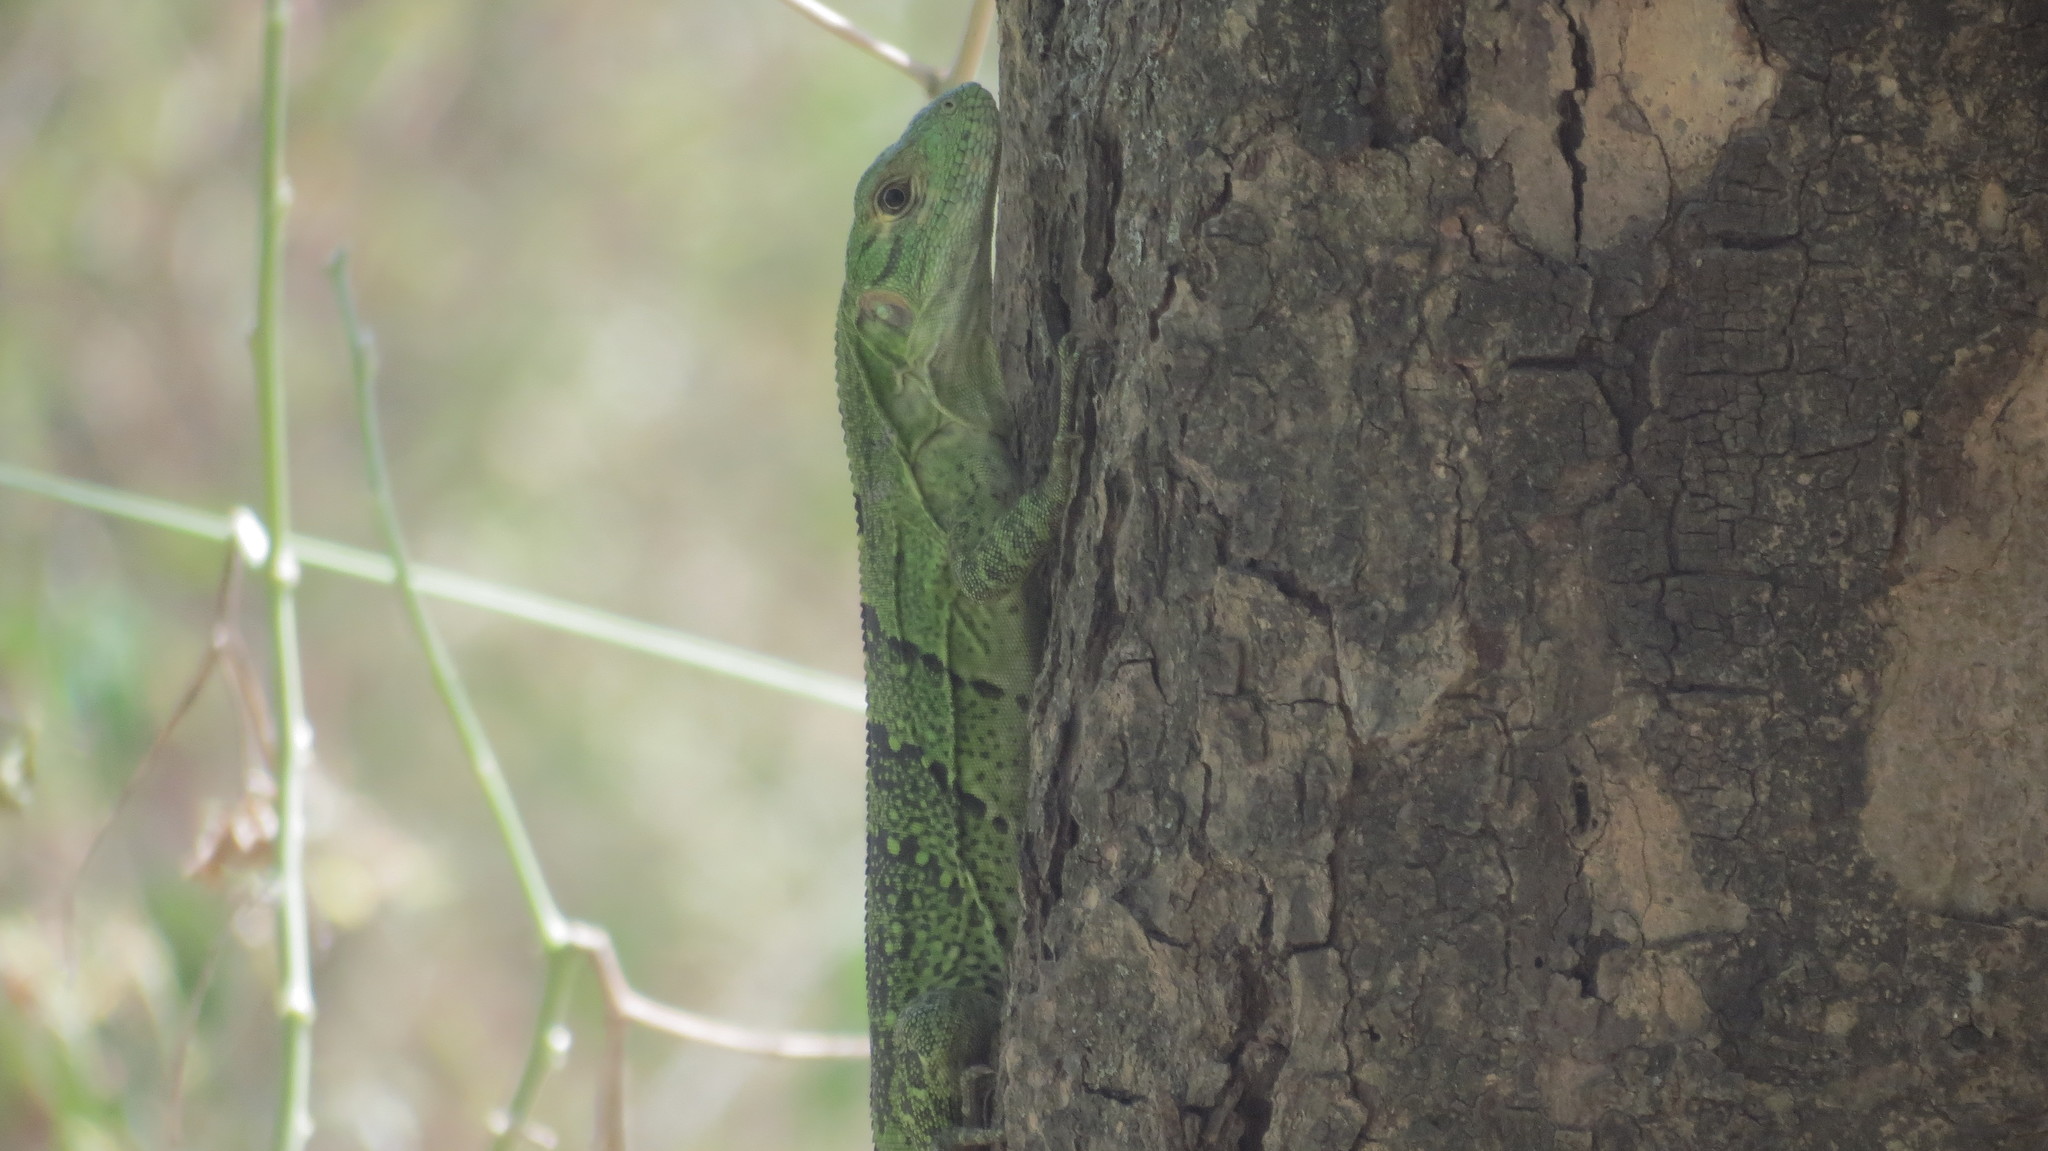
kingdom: Animalia
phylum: Chordata
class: Squamata
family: Iguanidae
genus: Ctenosaura
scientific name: Ctenosaura similis
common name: Black spiny-tailed iguana
